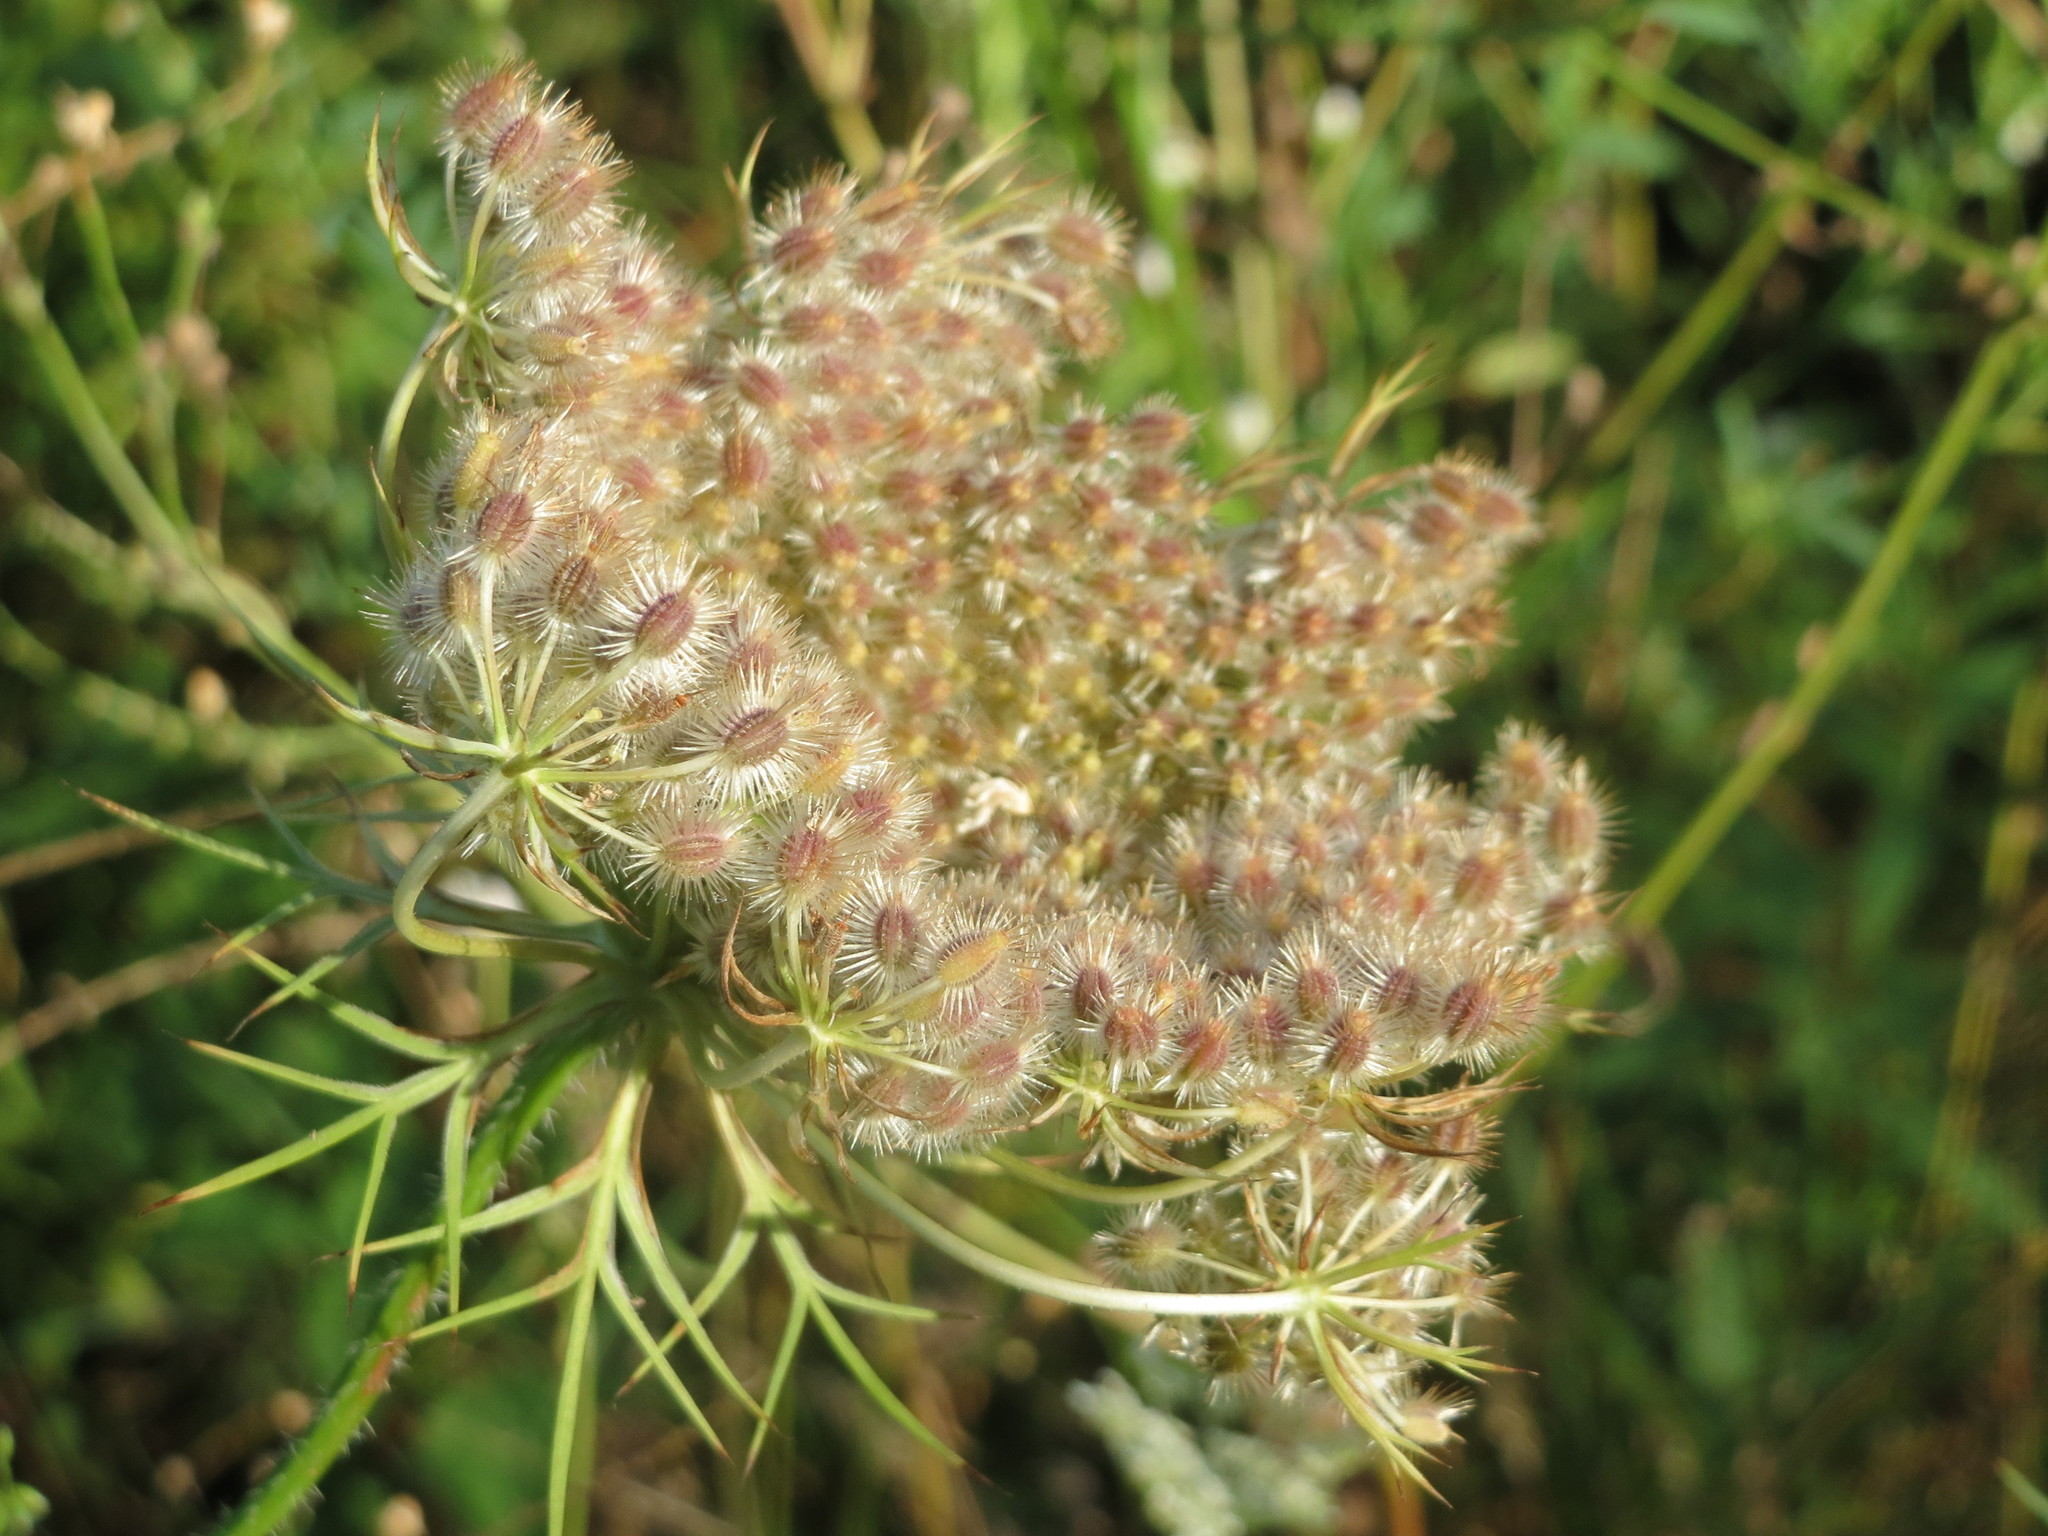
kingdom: Plantae
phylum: Tracheophyta
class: Magnoliopsida
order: Apiales
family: Apiaceae
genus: Daucus
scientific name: Daucus carota
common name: Wild carrot
